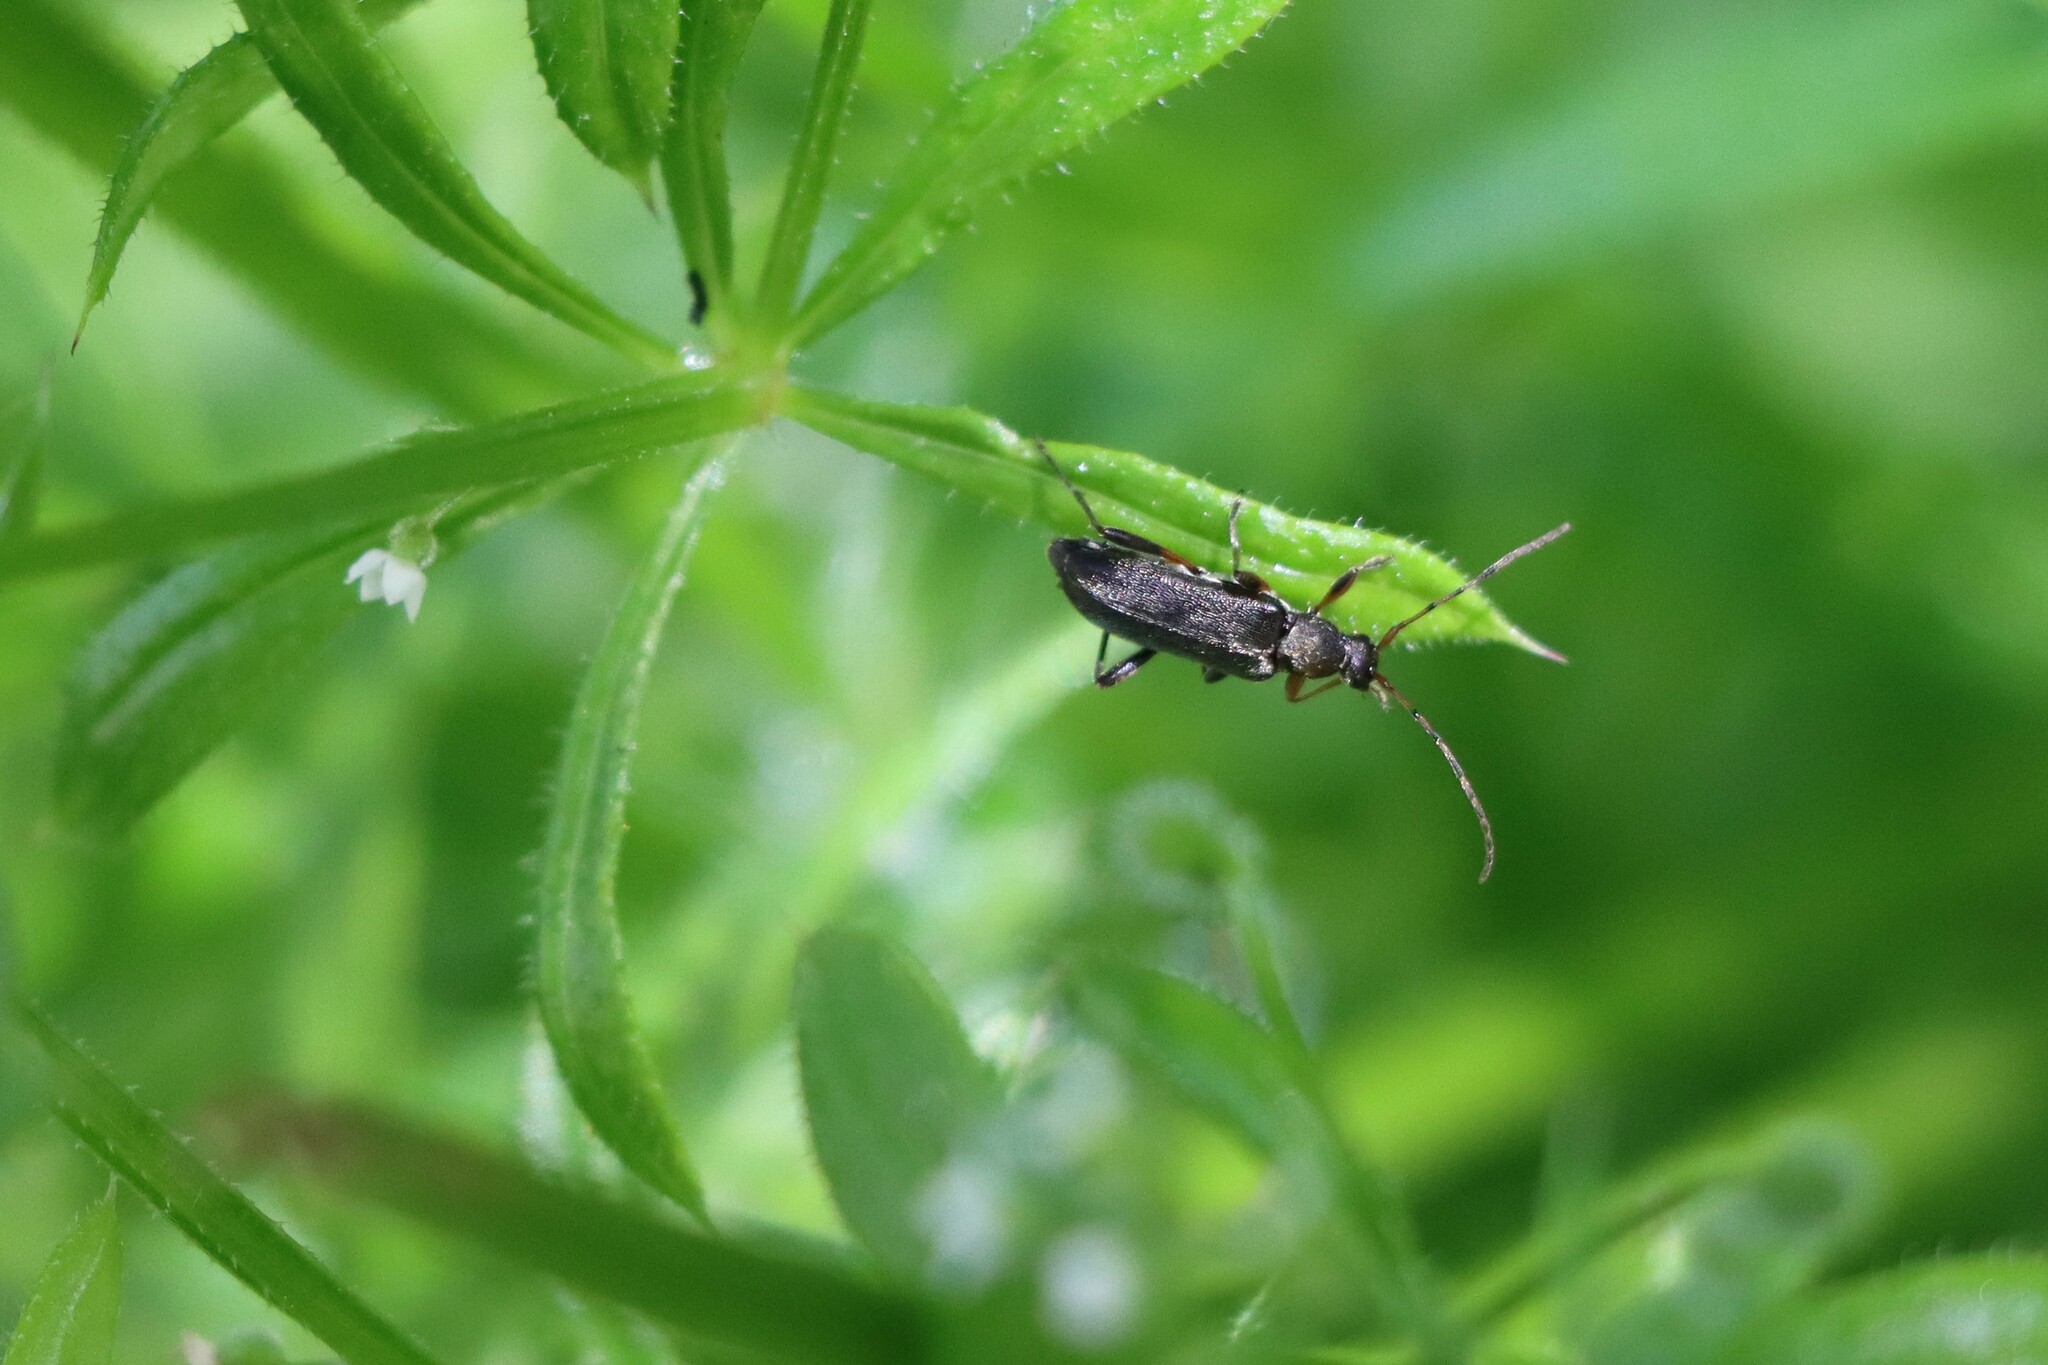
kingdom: Animalia
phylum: Arthropoda
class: Insecta
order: Coleoptera
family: Cerambycidae
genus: Grammoptera
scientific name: Grammoptera ruficornis
